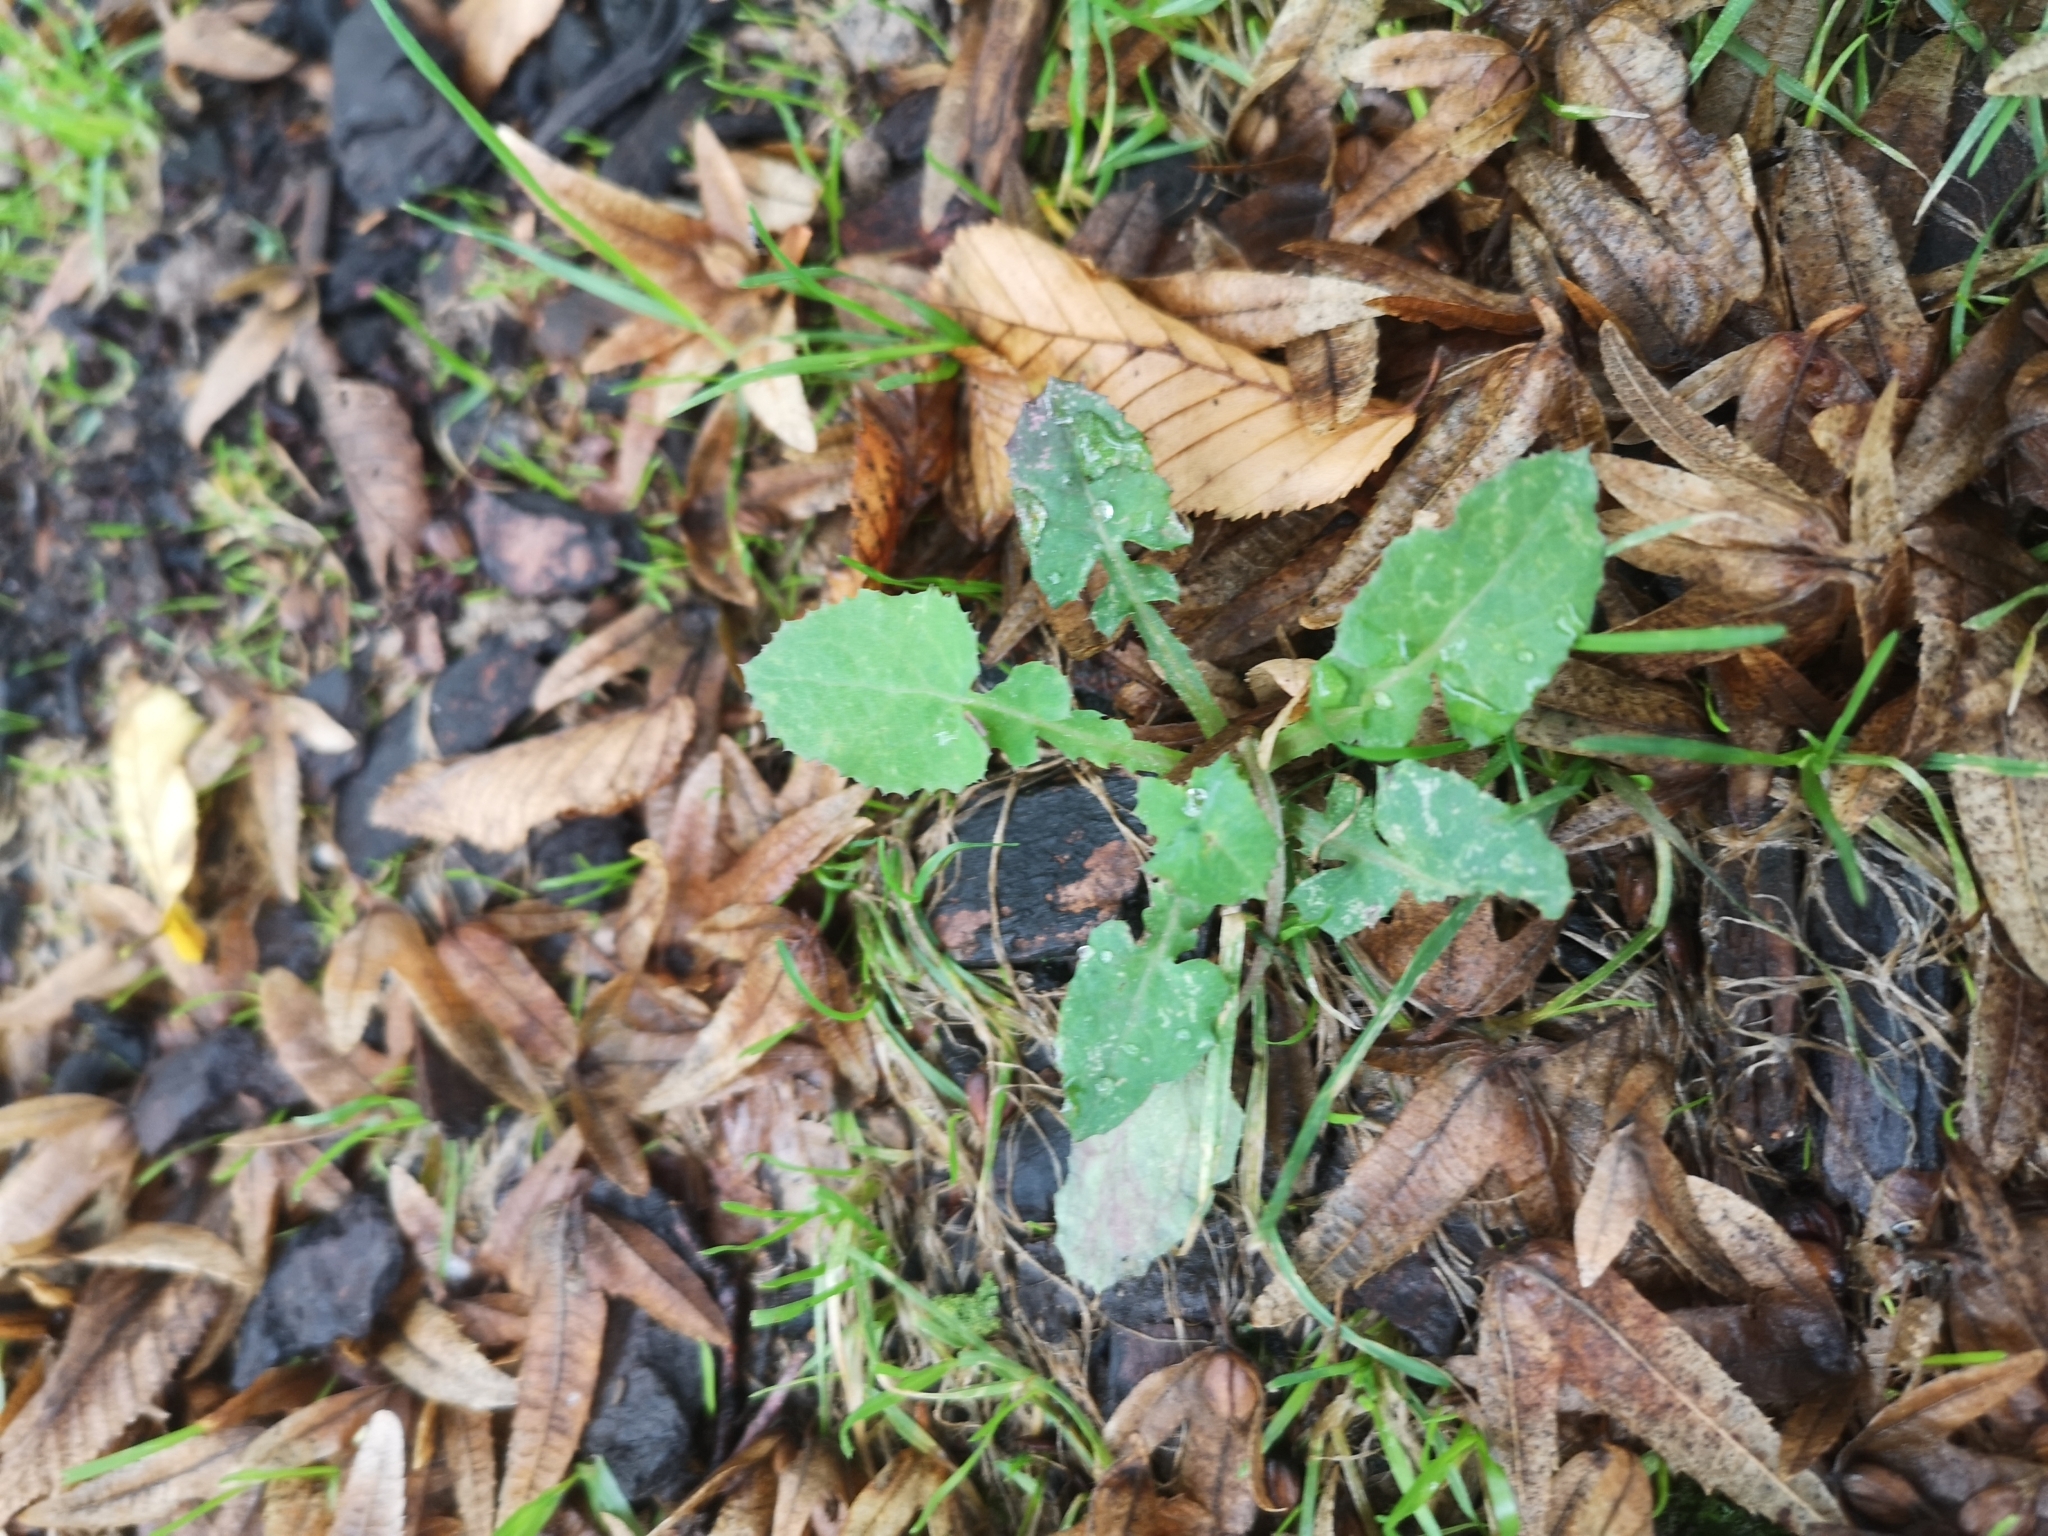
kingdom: Plantae
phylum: Tracheophyta
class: Magnoliopsida
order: Asterales
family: Asteraceae
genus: Sonchus
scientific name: Sonchus oleraceus
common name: Common sowthistle
